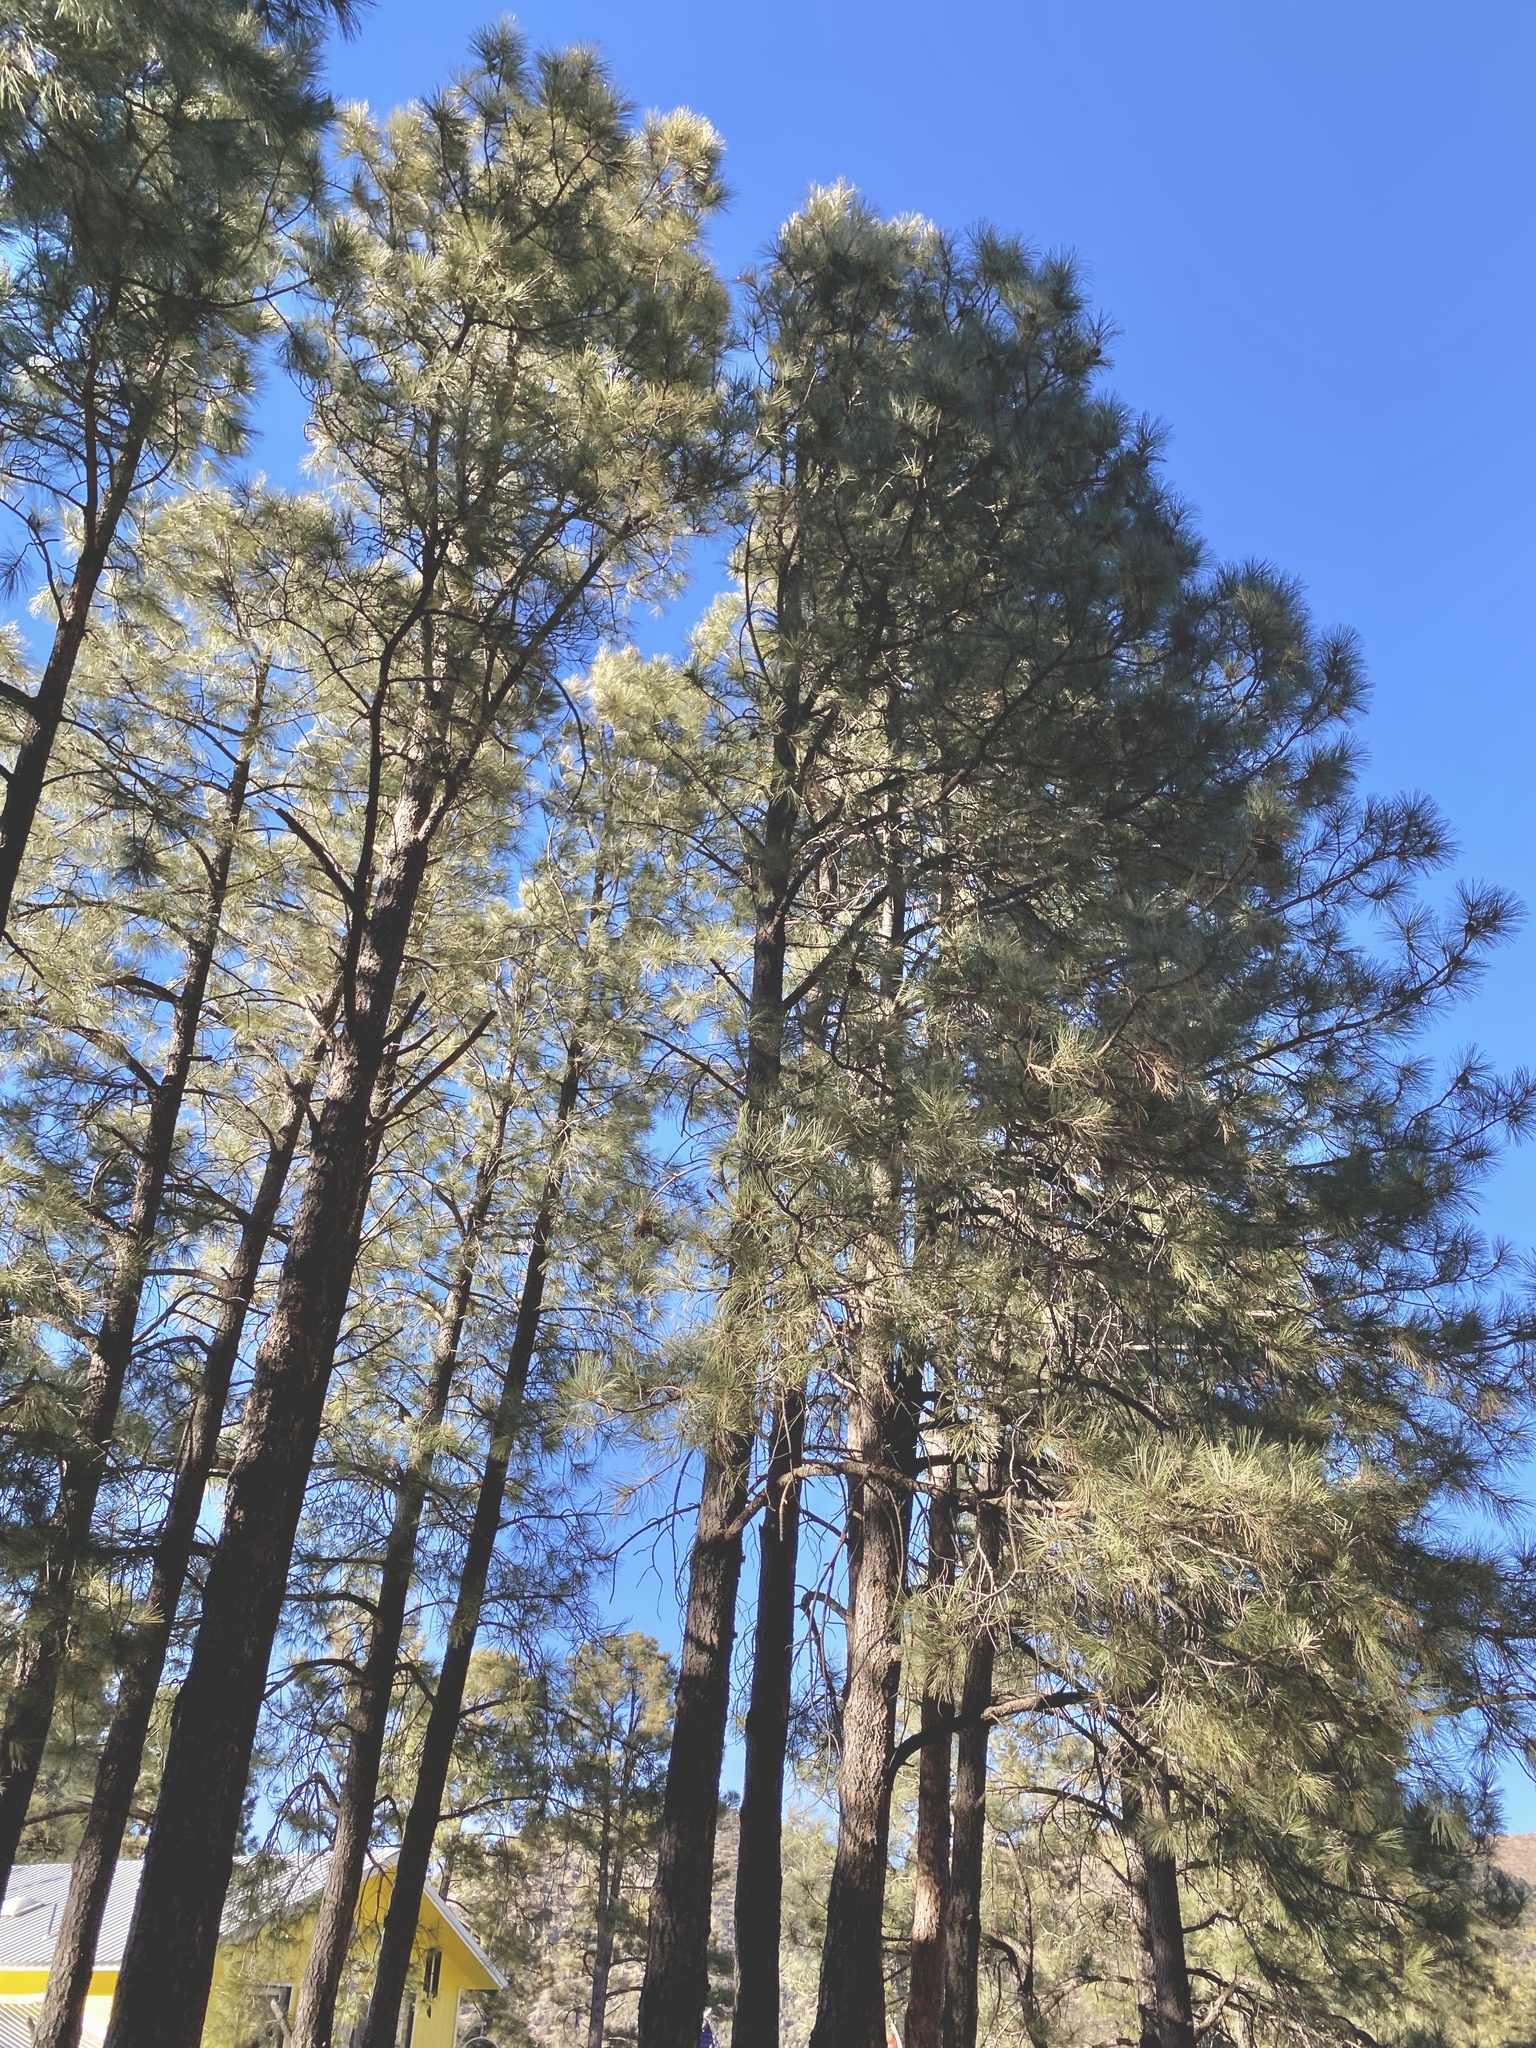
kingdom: Plantae
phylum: Tracheophyta
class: Pinopsida
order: Pinales
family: Pinaceae
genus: Pinus
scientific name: Pinus ponderosa
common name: Western yellow-pine
